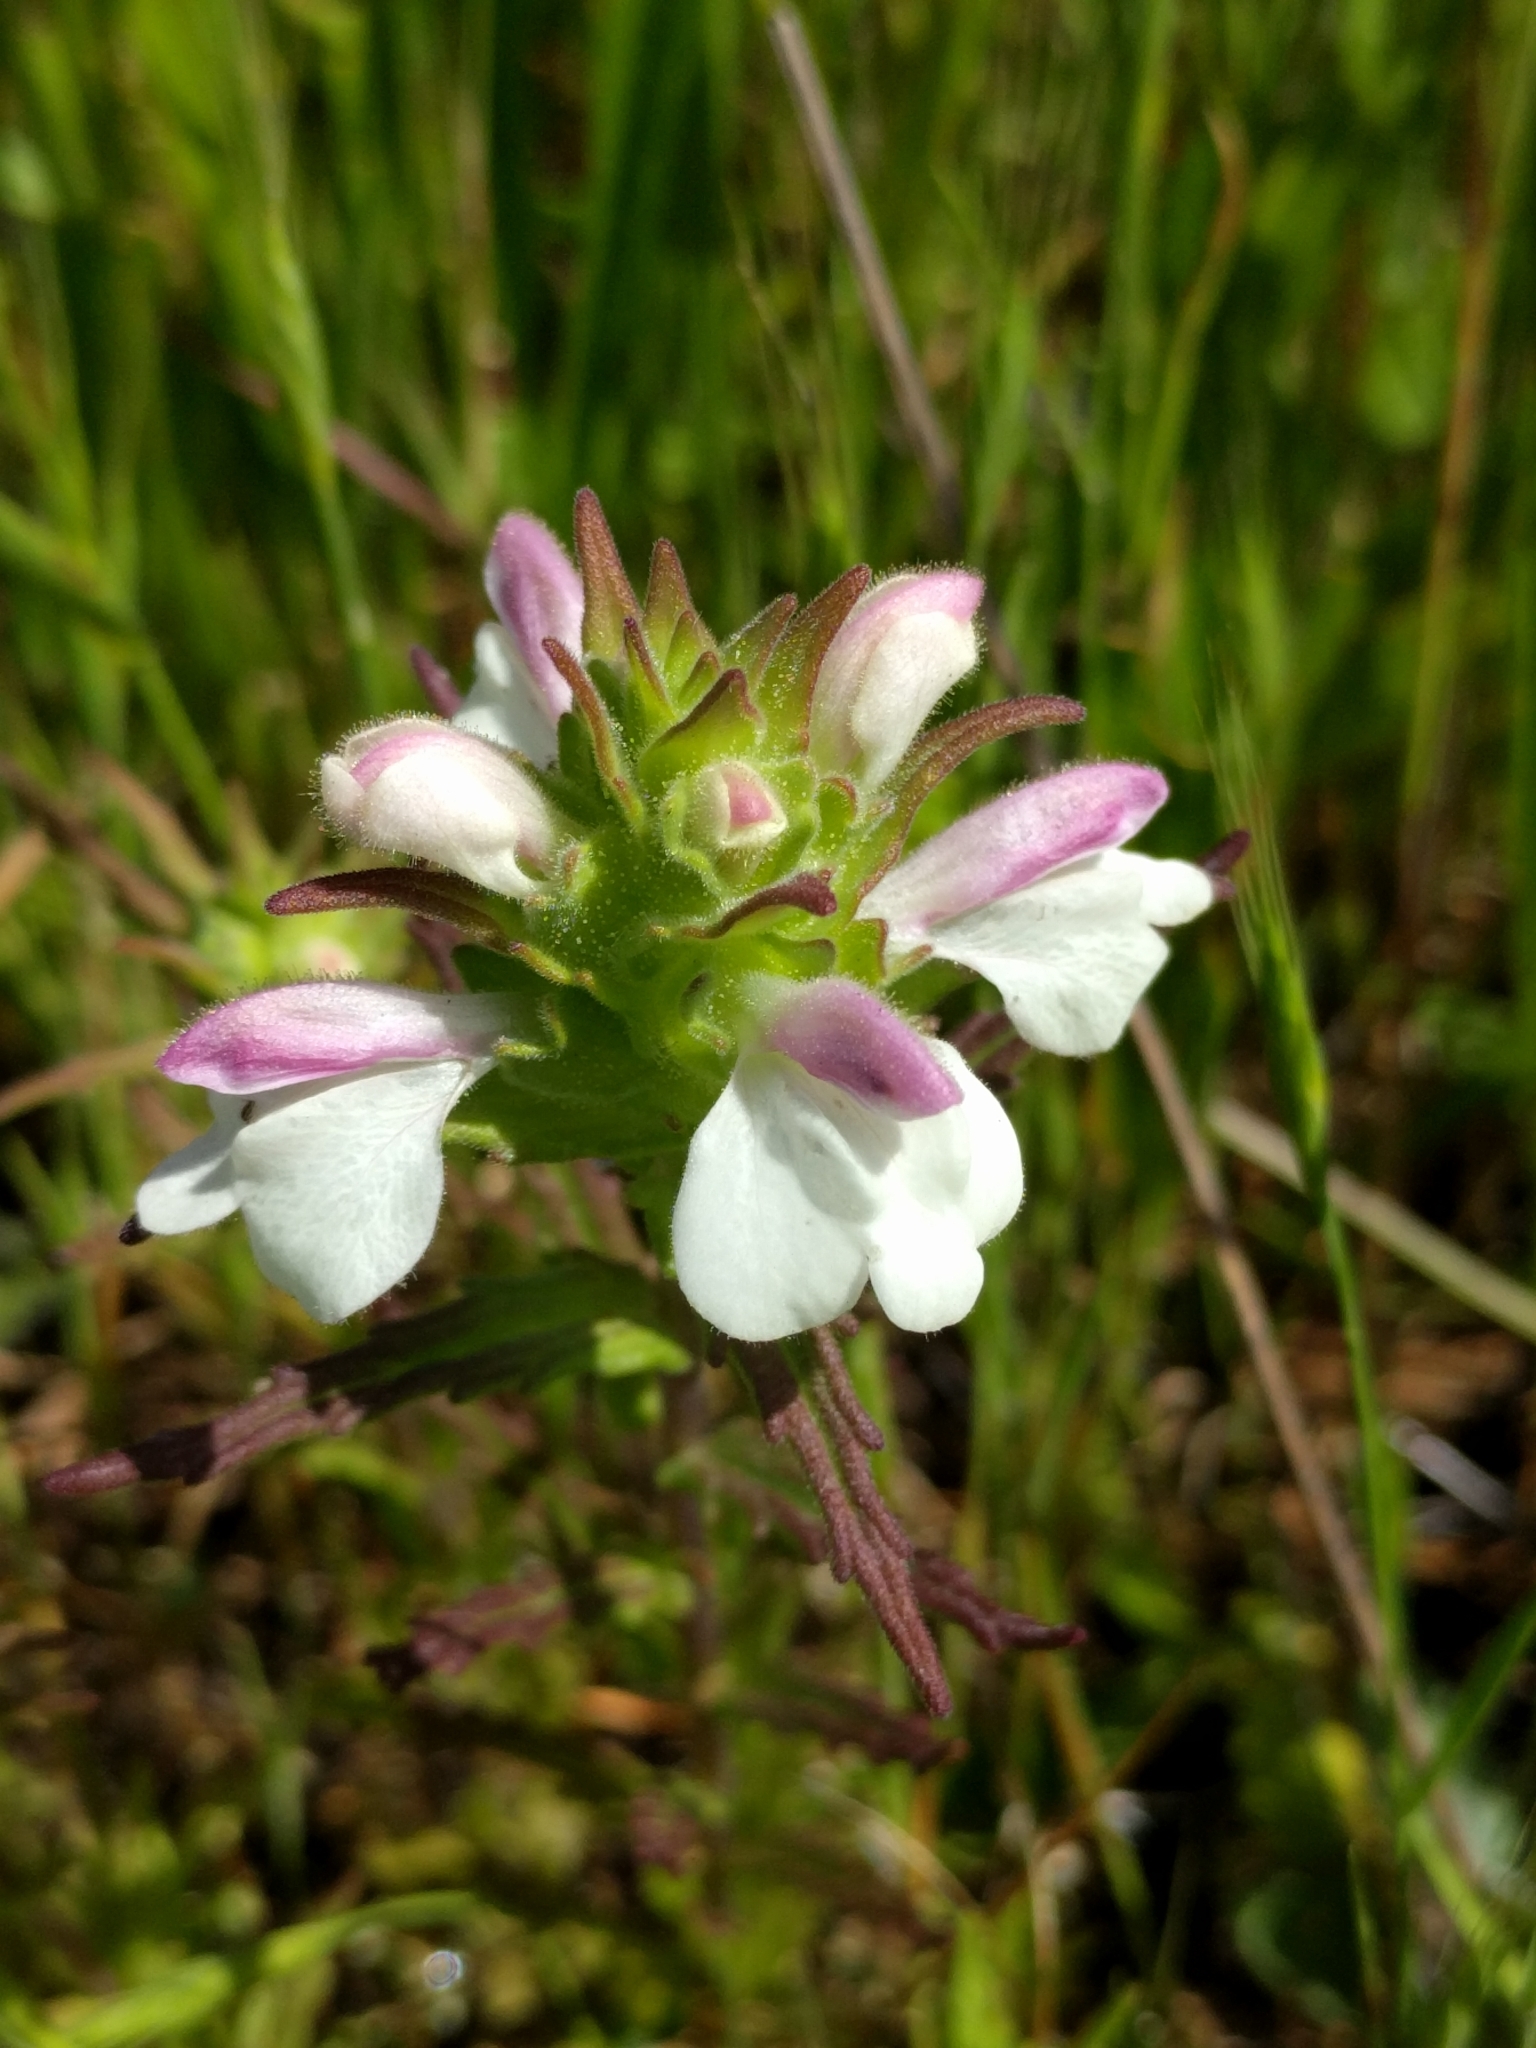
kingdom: Plantae
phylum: Tracheophyta
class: Magnoliopsida
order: Lamiales
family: Orobanchaceae
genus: Bellardia
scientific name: Bellardia trixago
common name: Mediterranean lineseed
